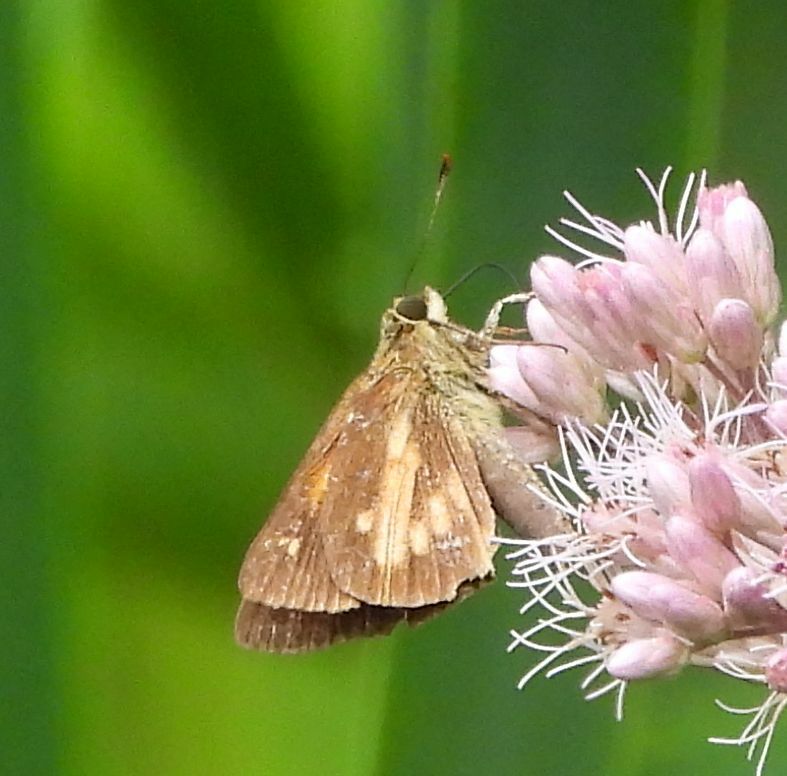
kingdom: Animalia
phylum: Arthropoda
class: Insecta
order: Lepidoptera
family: Hesperiidae
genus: Poanes
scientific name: Poanes viator
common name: Broad-winged skipper
